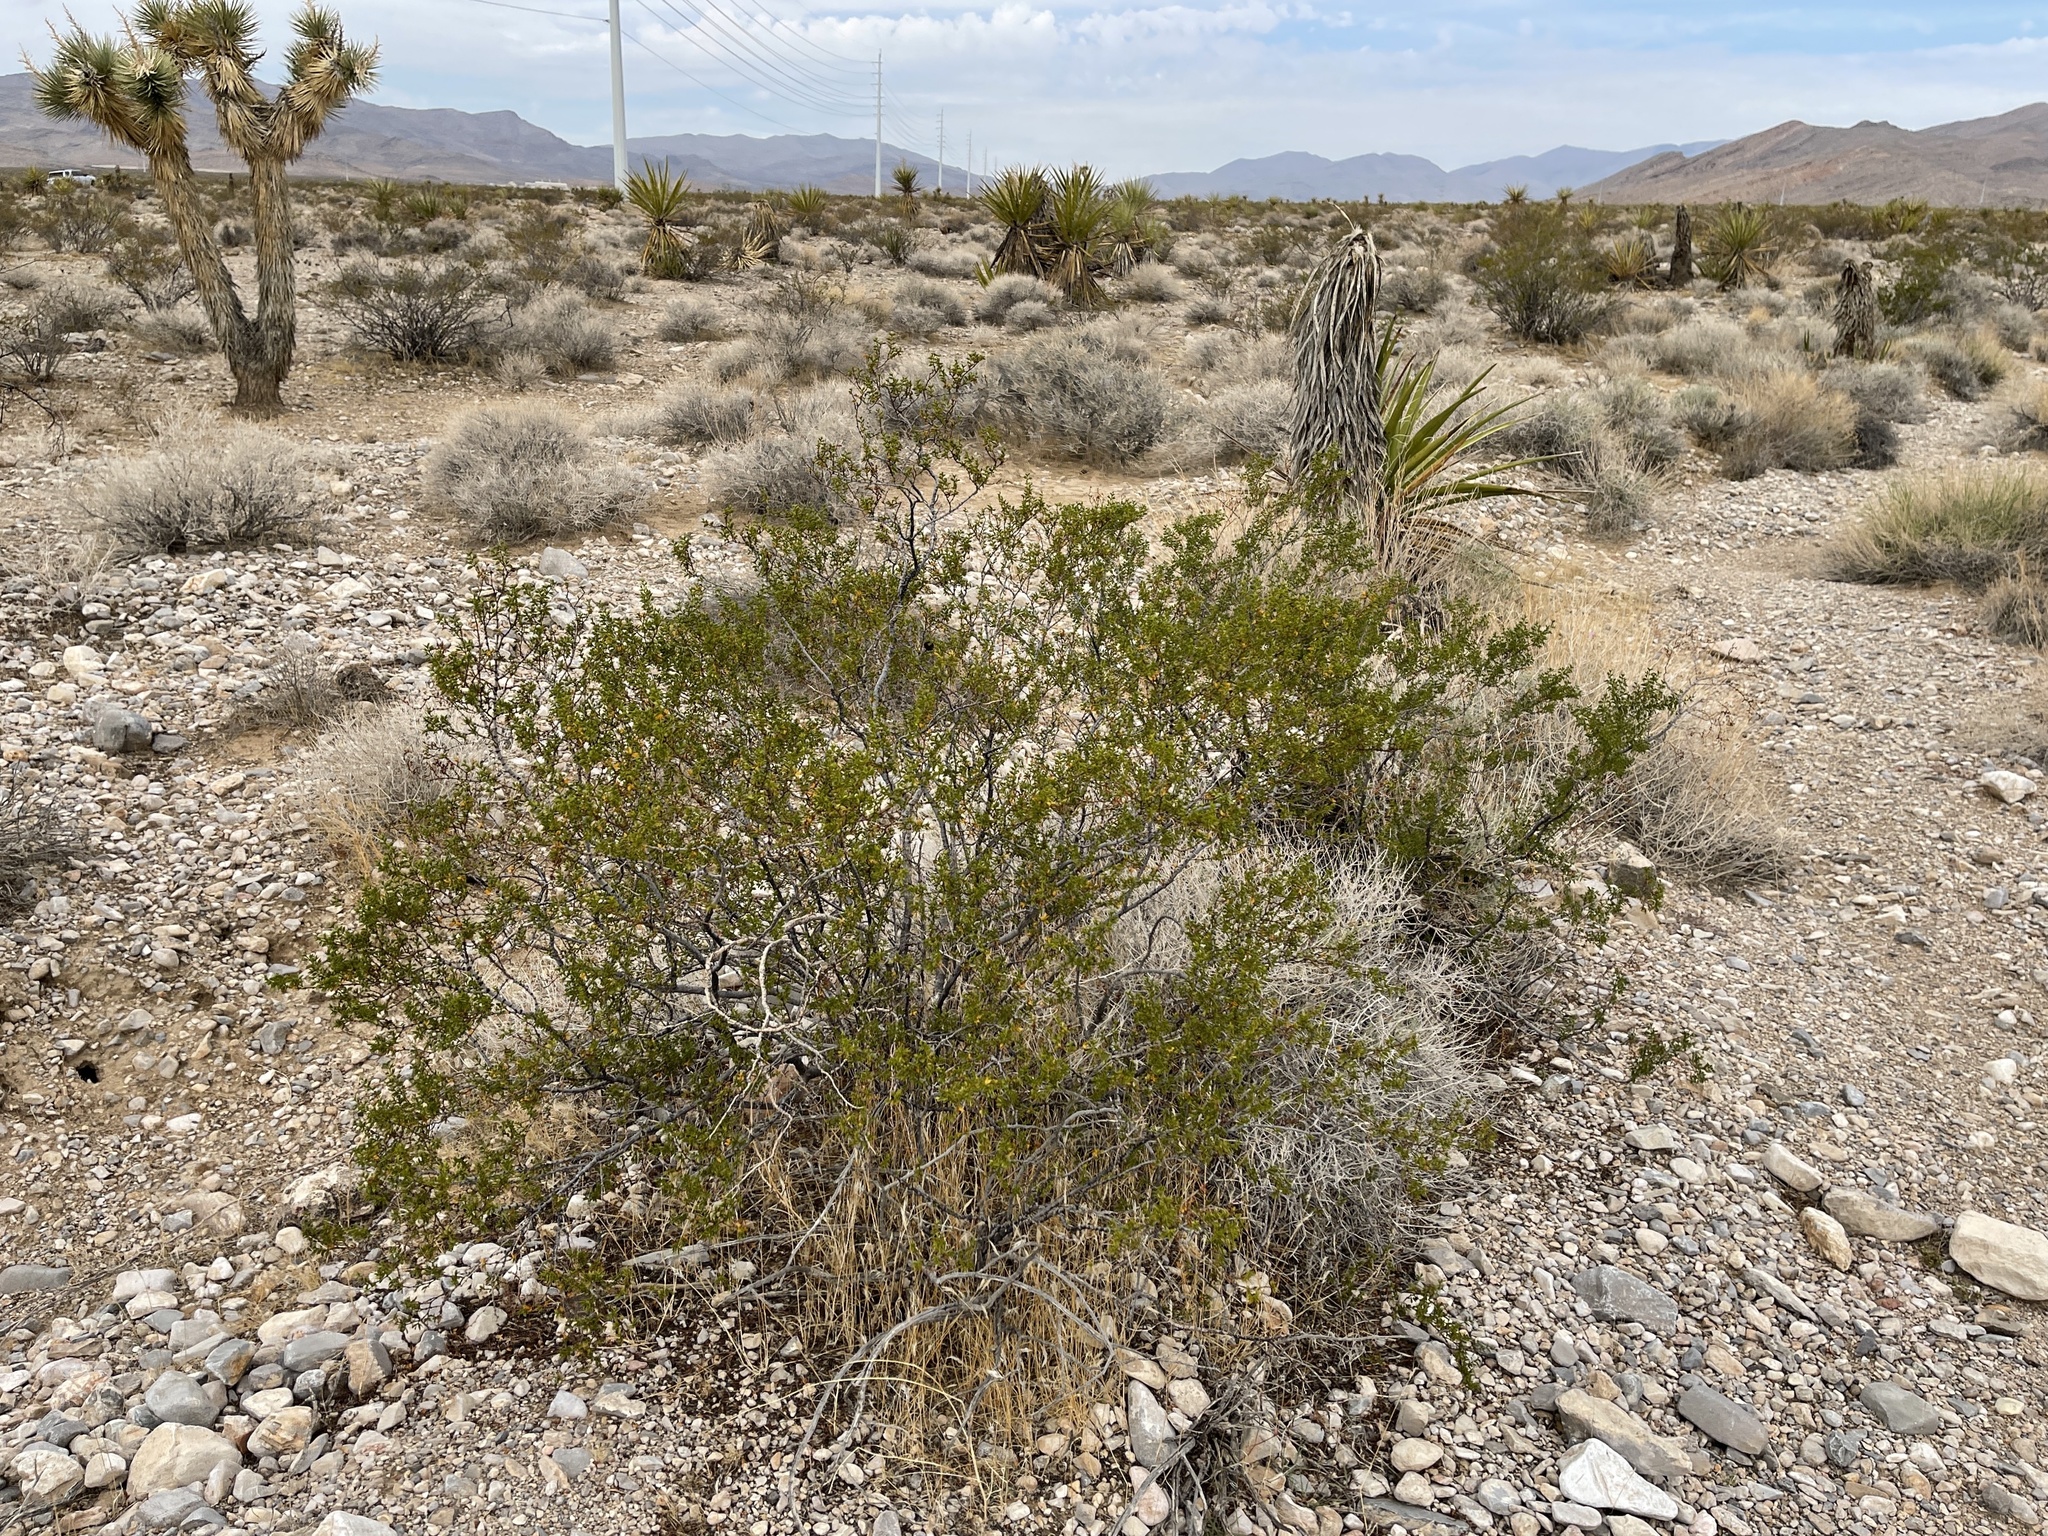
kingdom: Plantae
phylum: Tracheophyta
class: Magnoliopsida
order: Zygophyllales
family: Zygophyllaceae
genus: Larrea
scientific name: Larrea tridentata
